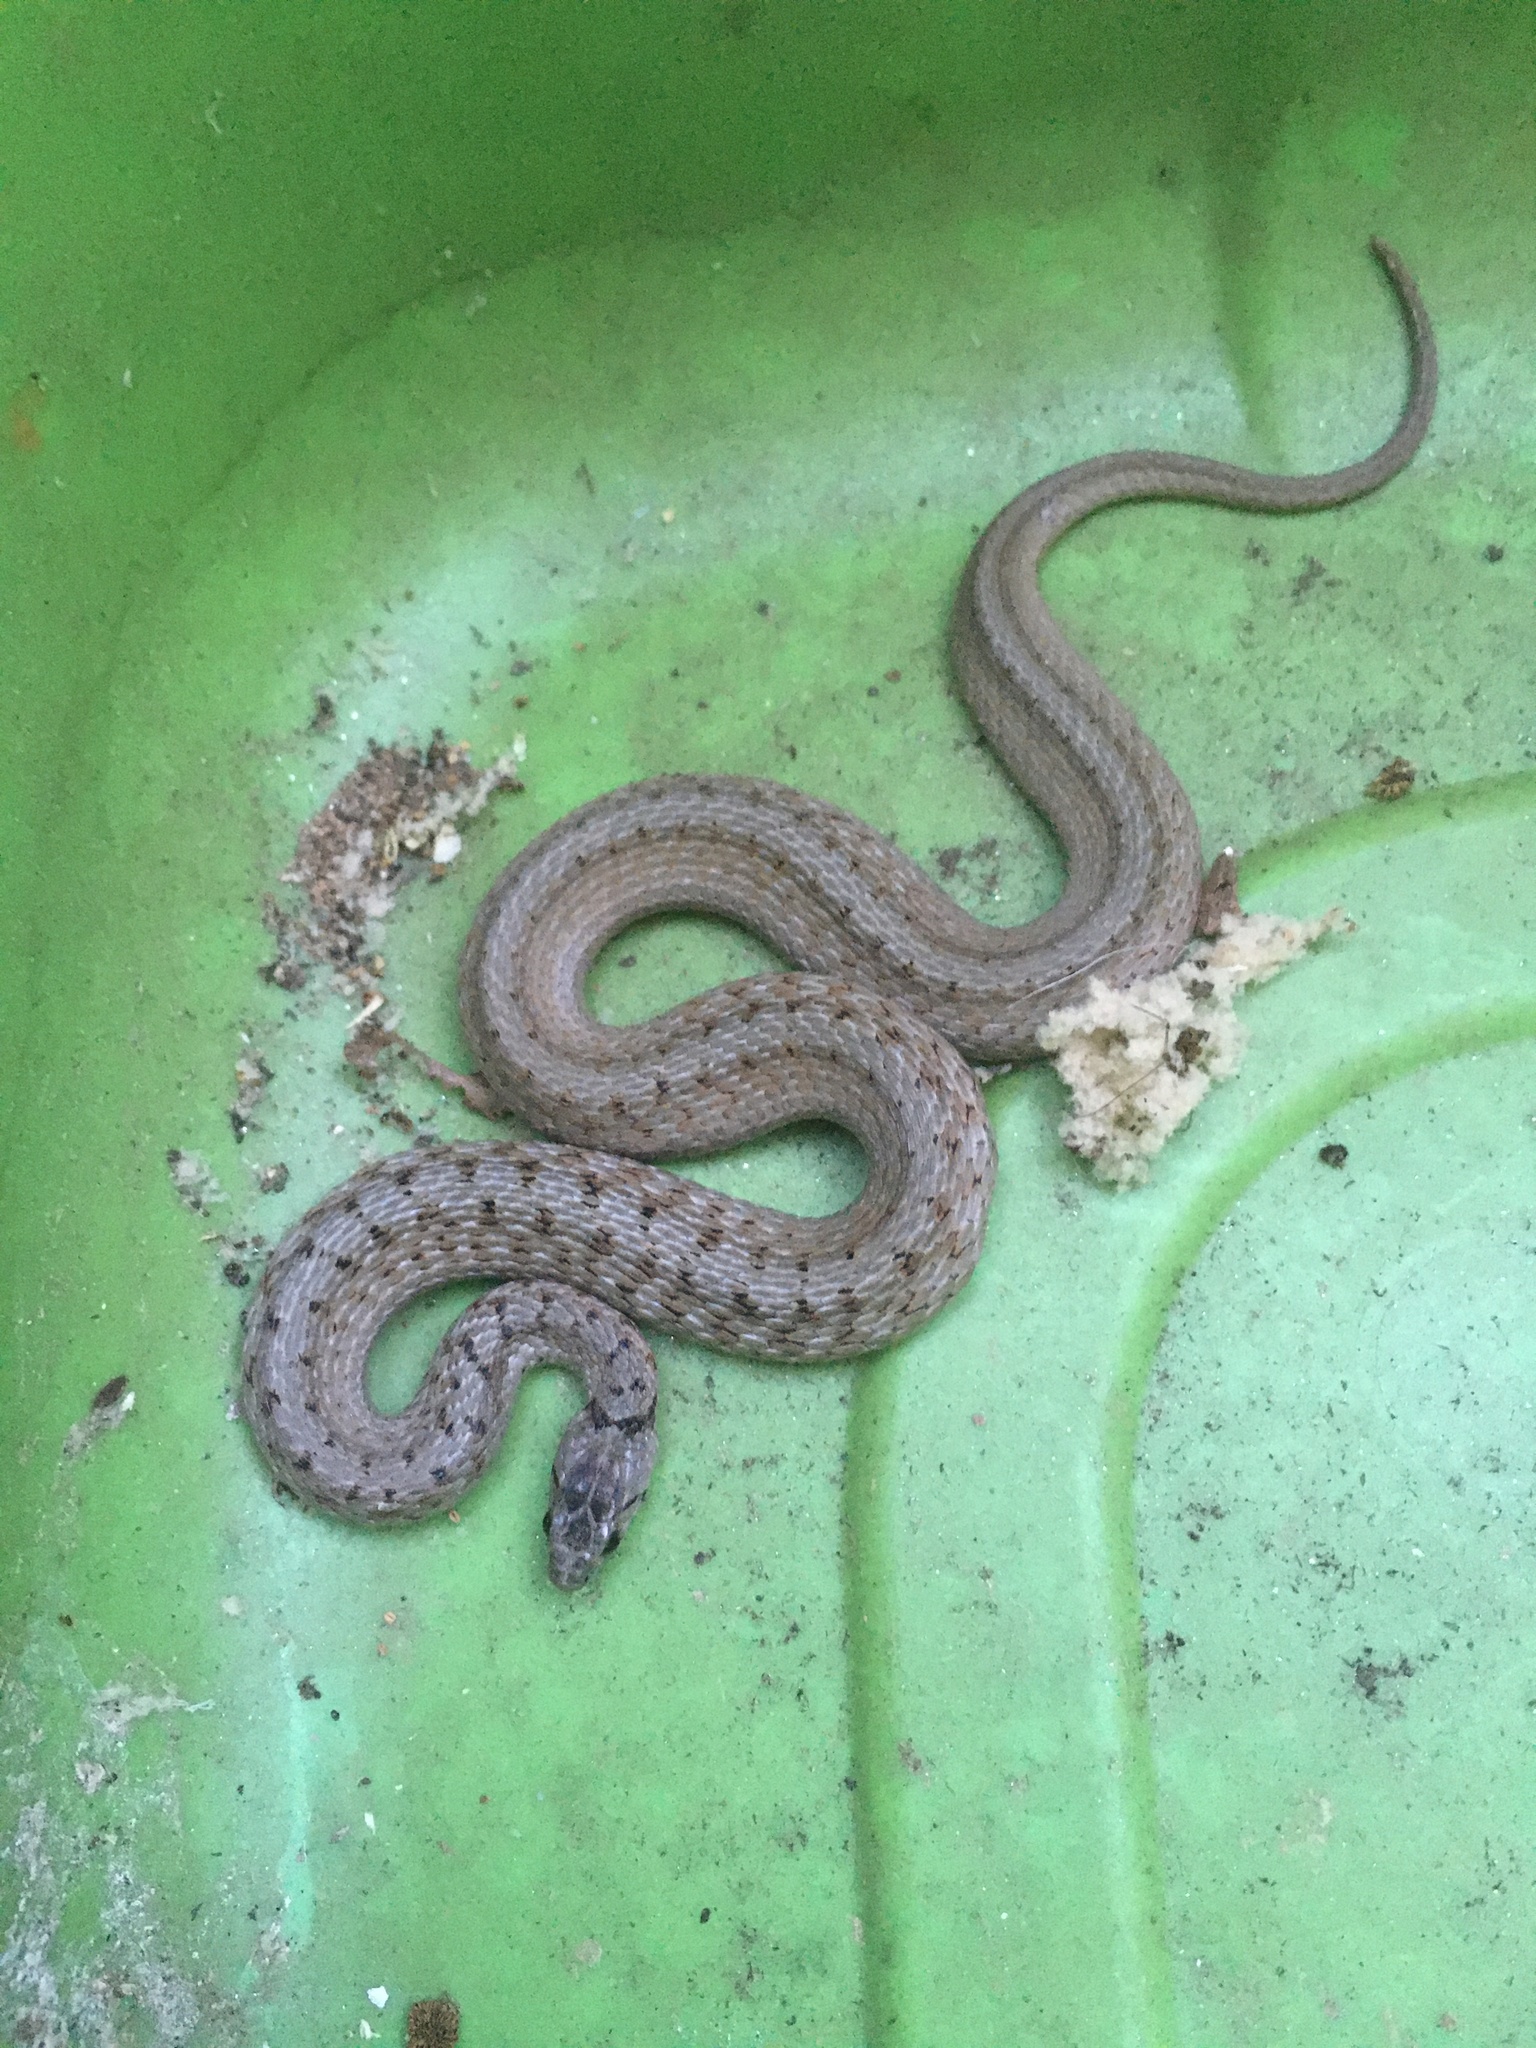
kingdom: Animalia
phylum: Chordata
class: Squamata
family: Colubridae
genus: Storeria
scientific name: Storeria dekayi
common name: (dekay’s) brown snake
